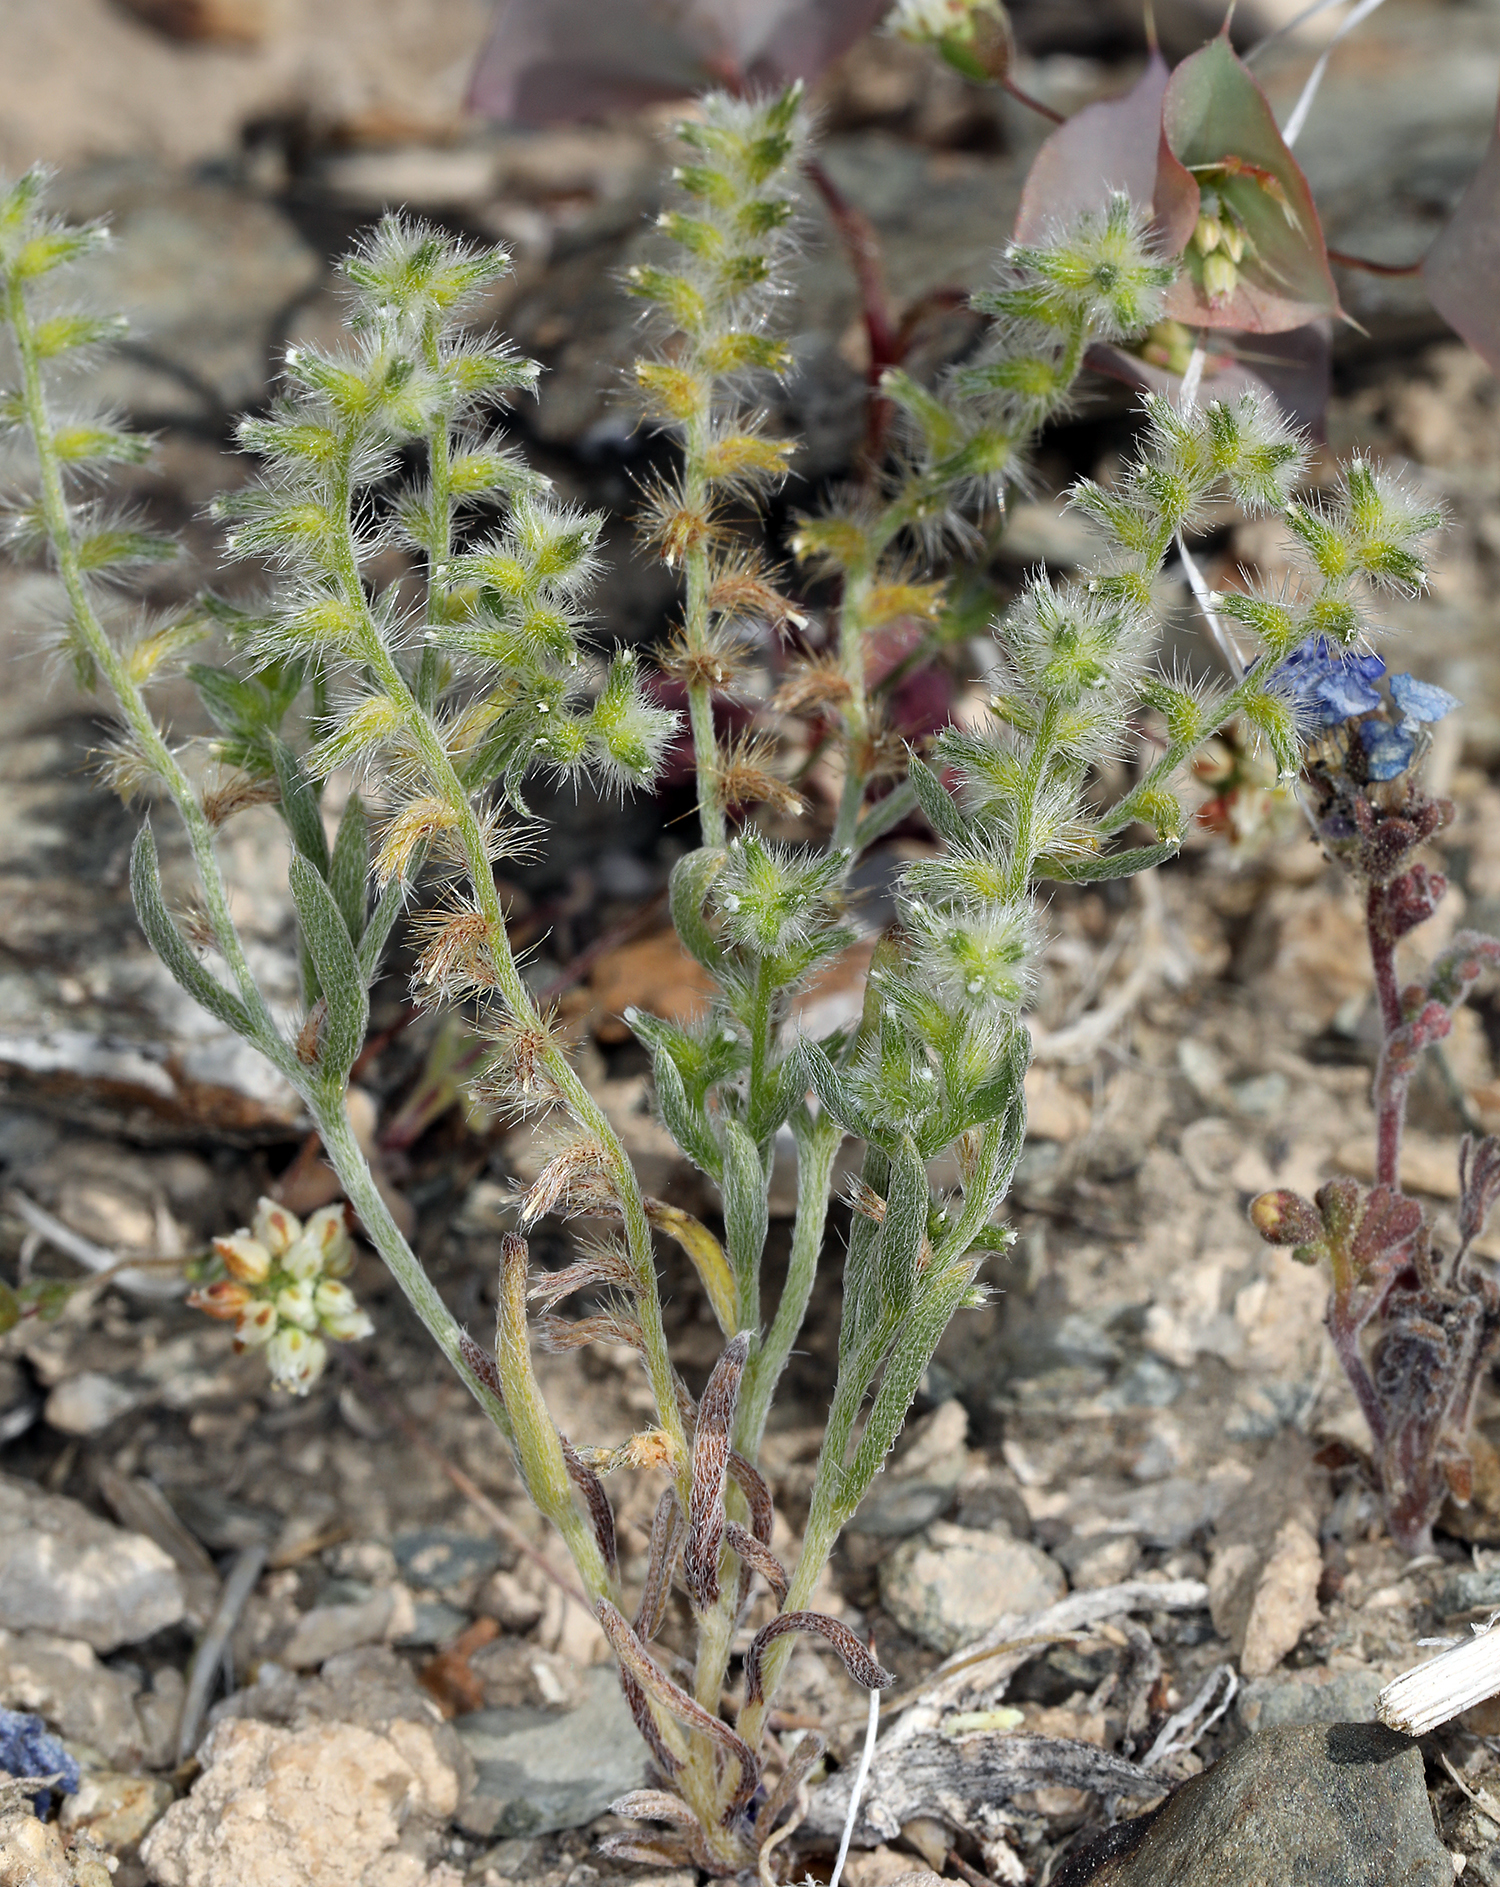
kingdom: Plantae
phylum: Tracheophyta
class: Magnoliopsida
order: Boraginales
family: Boraginaceae
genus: Cryptantha
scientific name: Cryptantha recurvata
